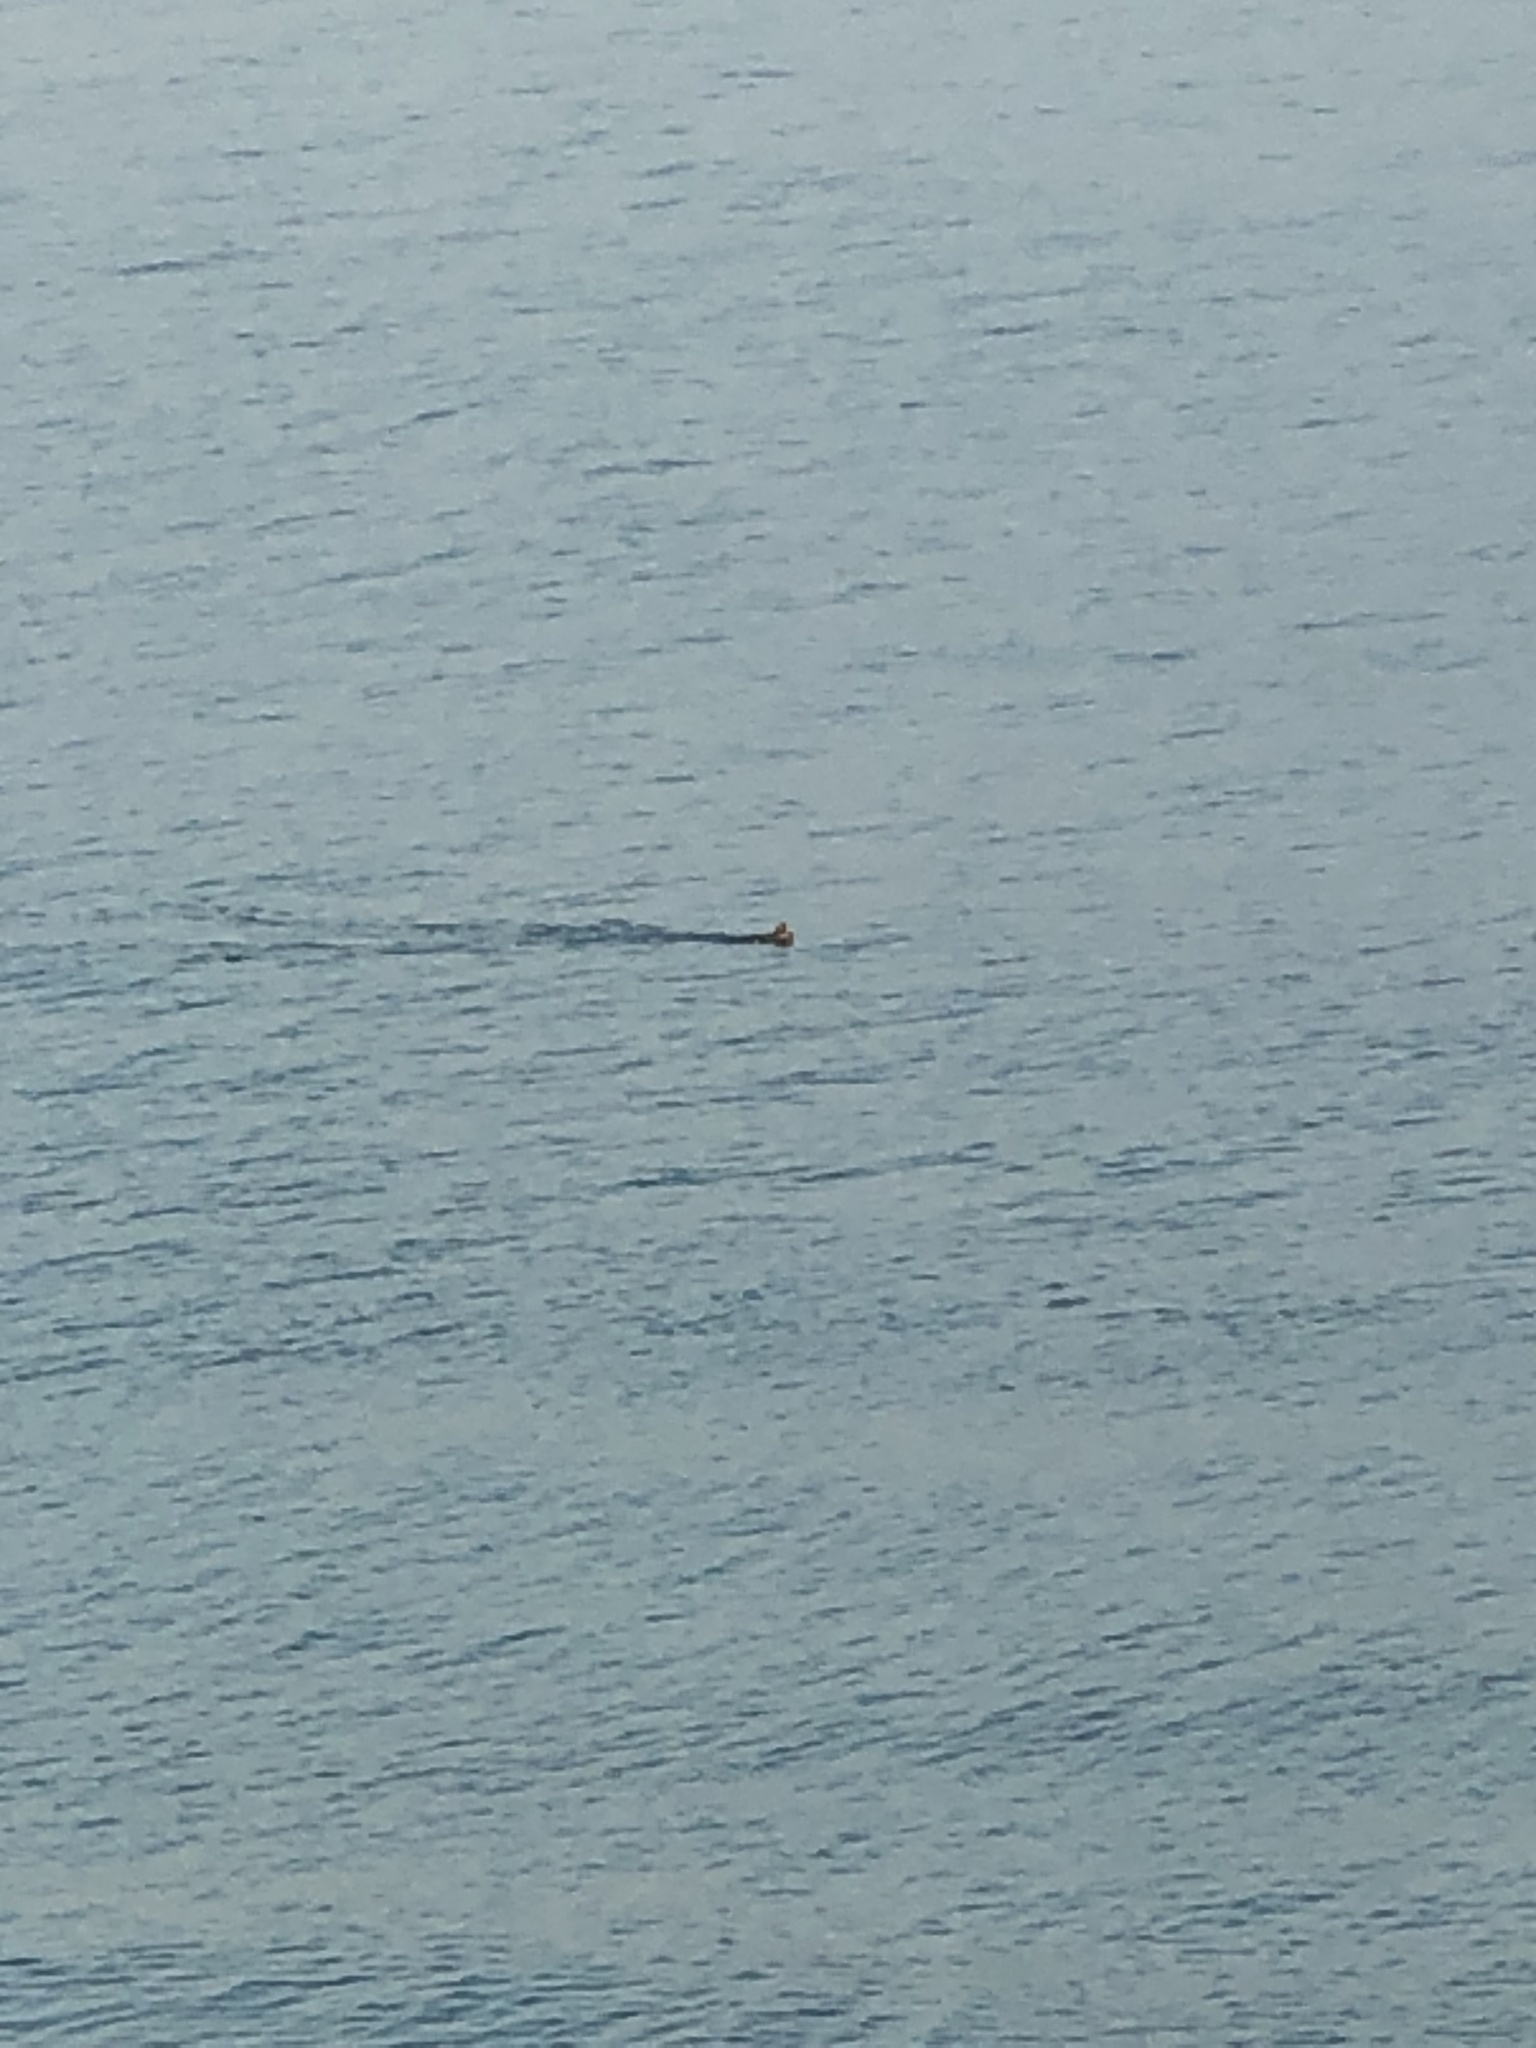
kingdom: Animalia
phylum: Chordata
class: Mammalia
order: Carnivora
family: Mustelidae
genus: Enhydra
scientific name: Enhydra lutris
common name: Sea otter
